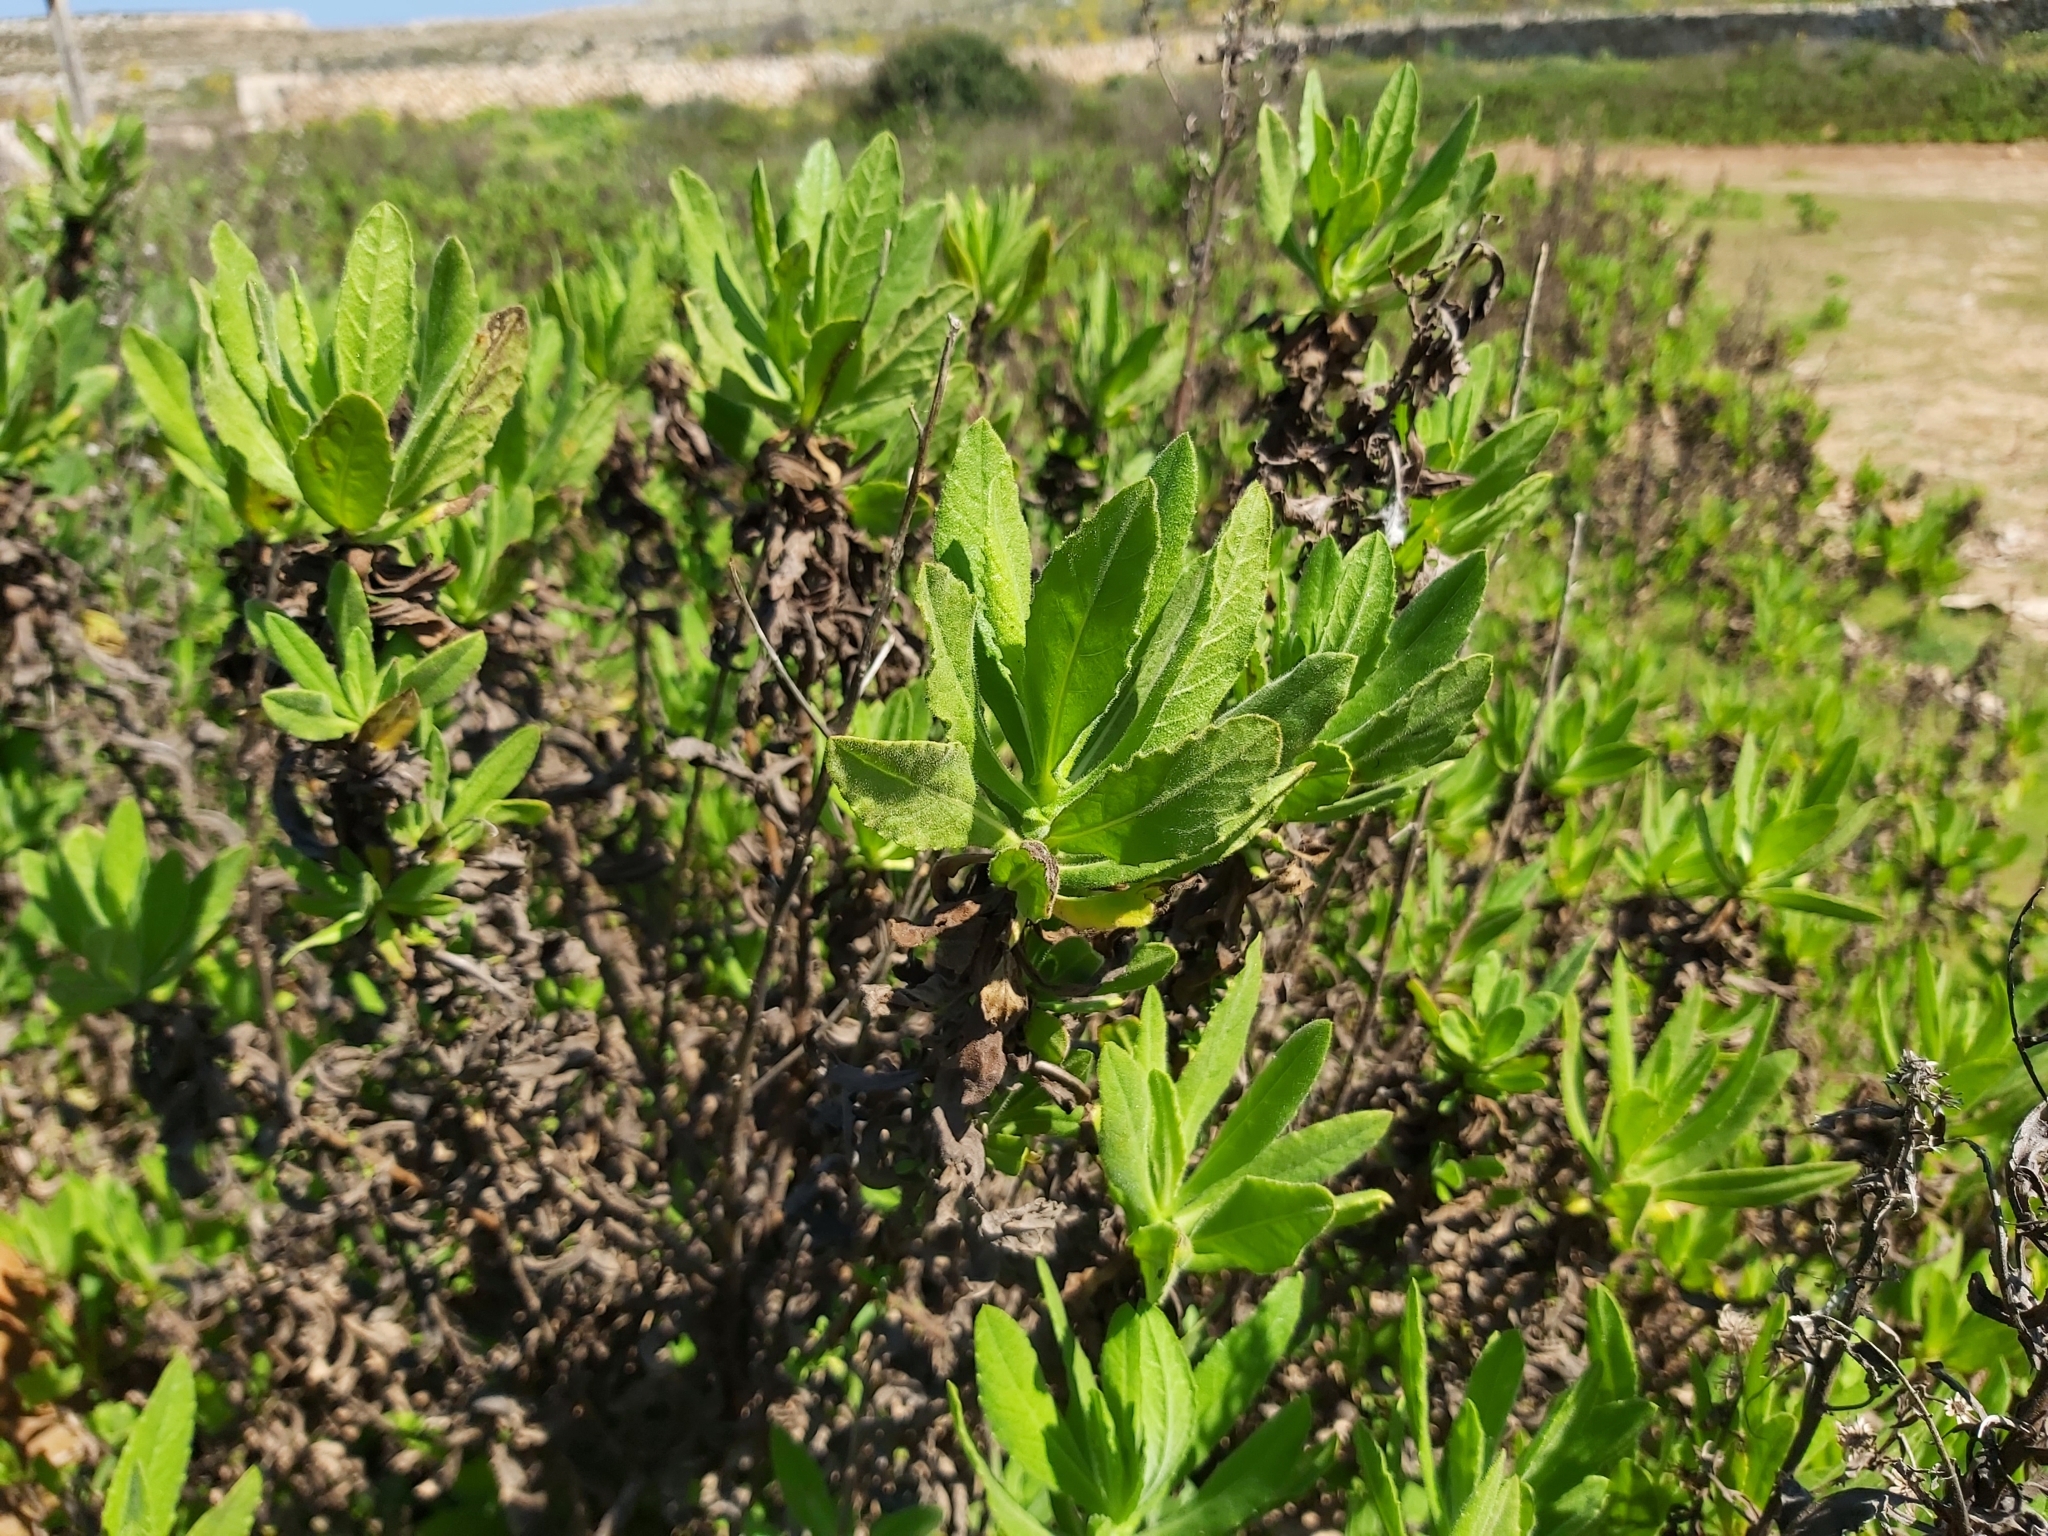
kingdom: Plantae
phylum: Tracheophyta
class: Magnoliopsida
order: Asterales
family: Asteraceae
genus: Dittrichia
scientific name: Dittrichia viscosa
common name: Woody fleabane
